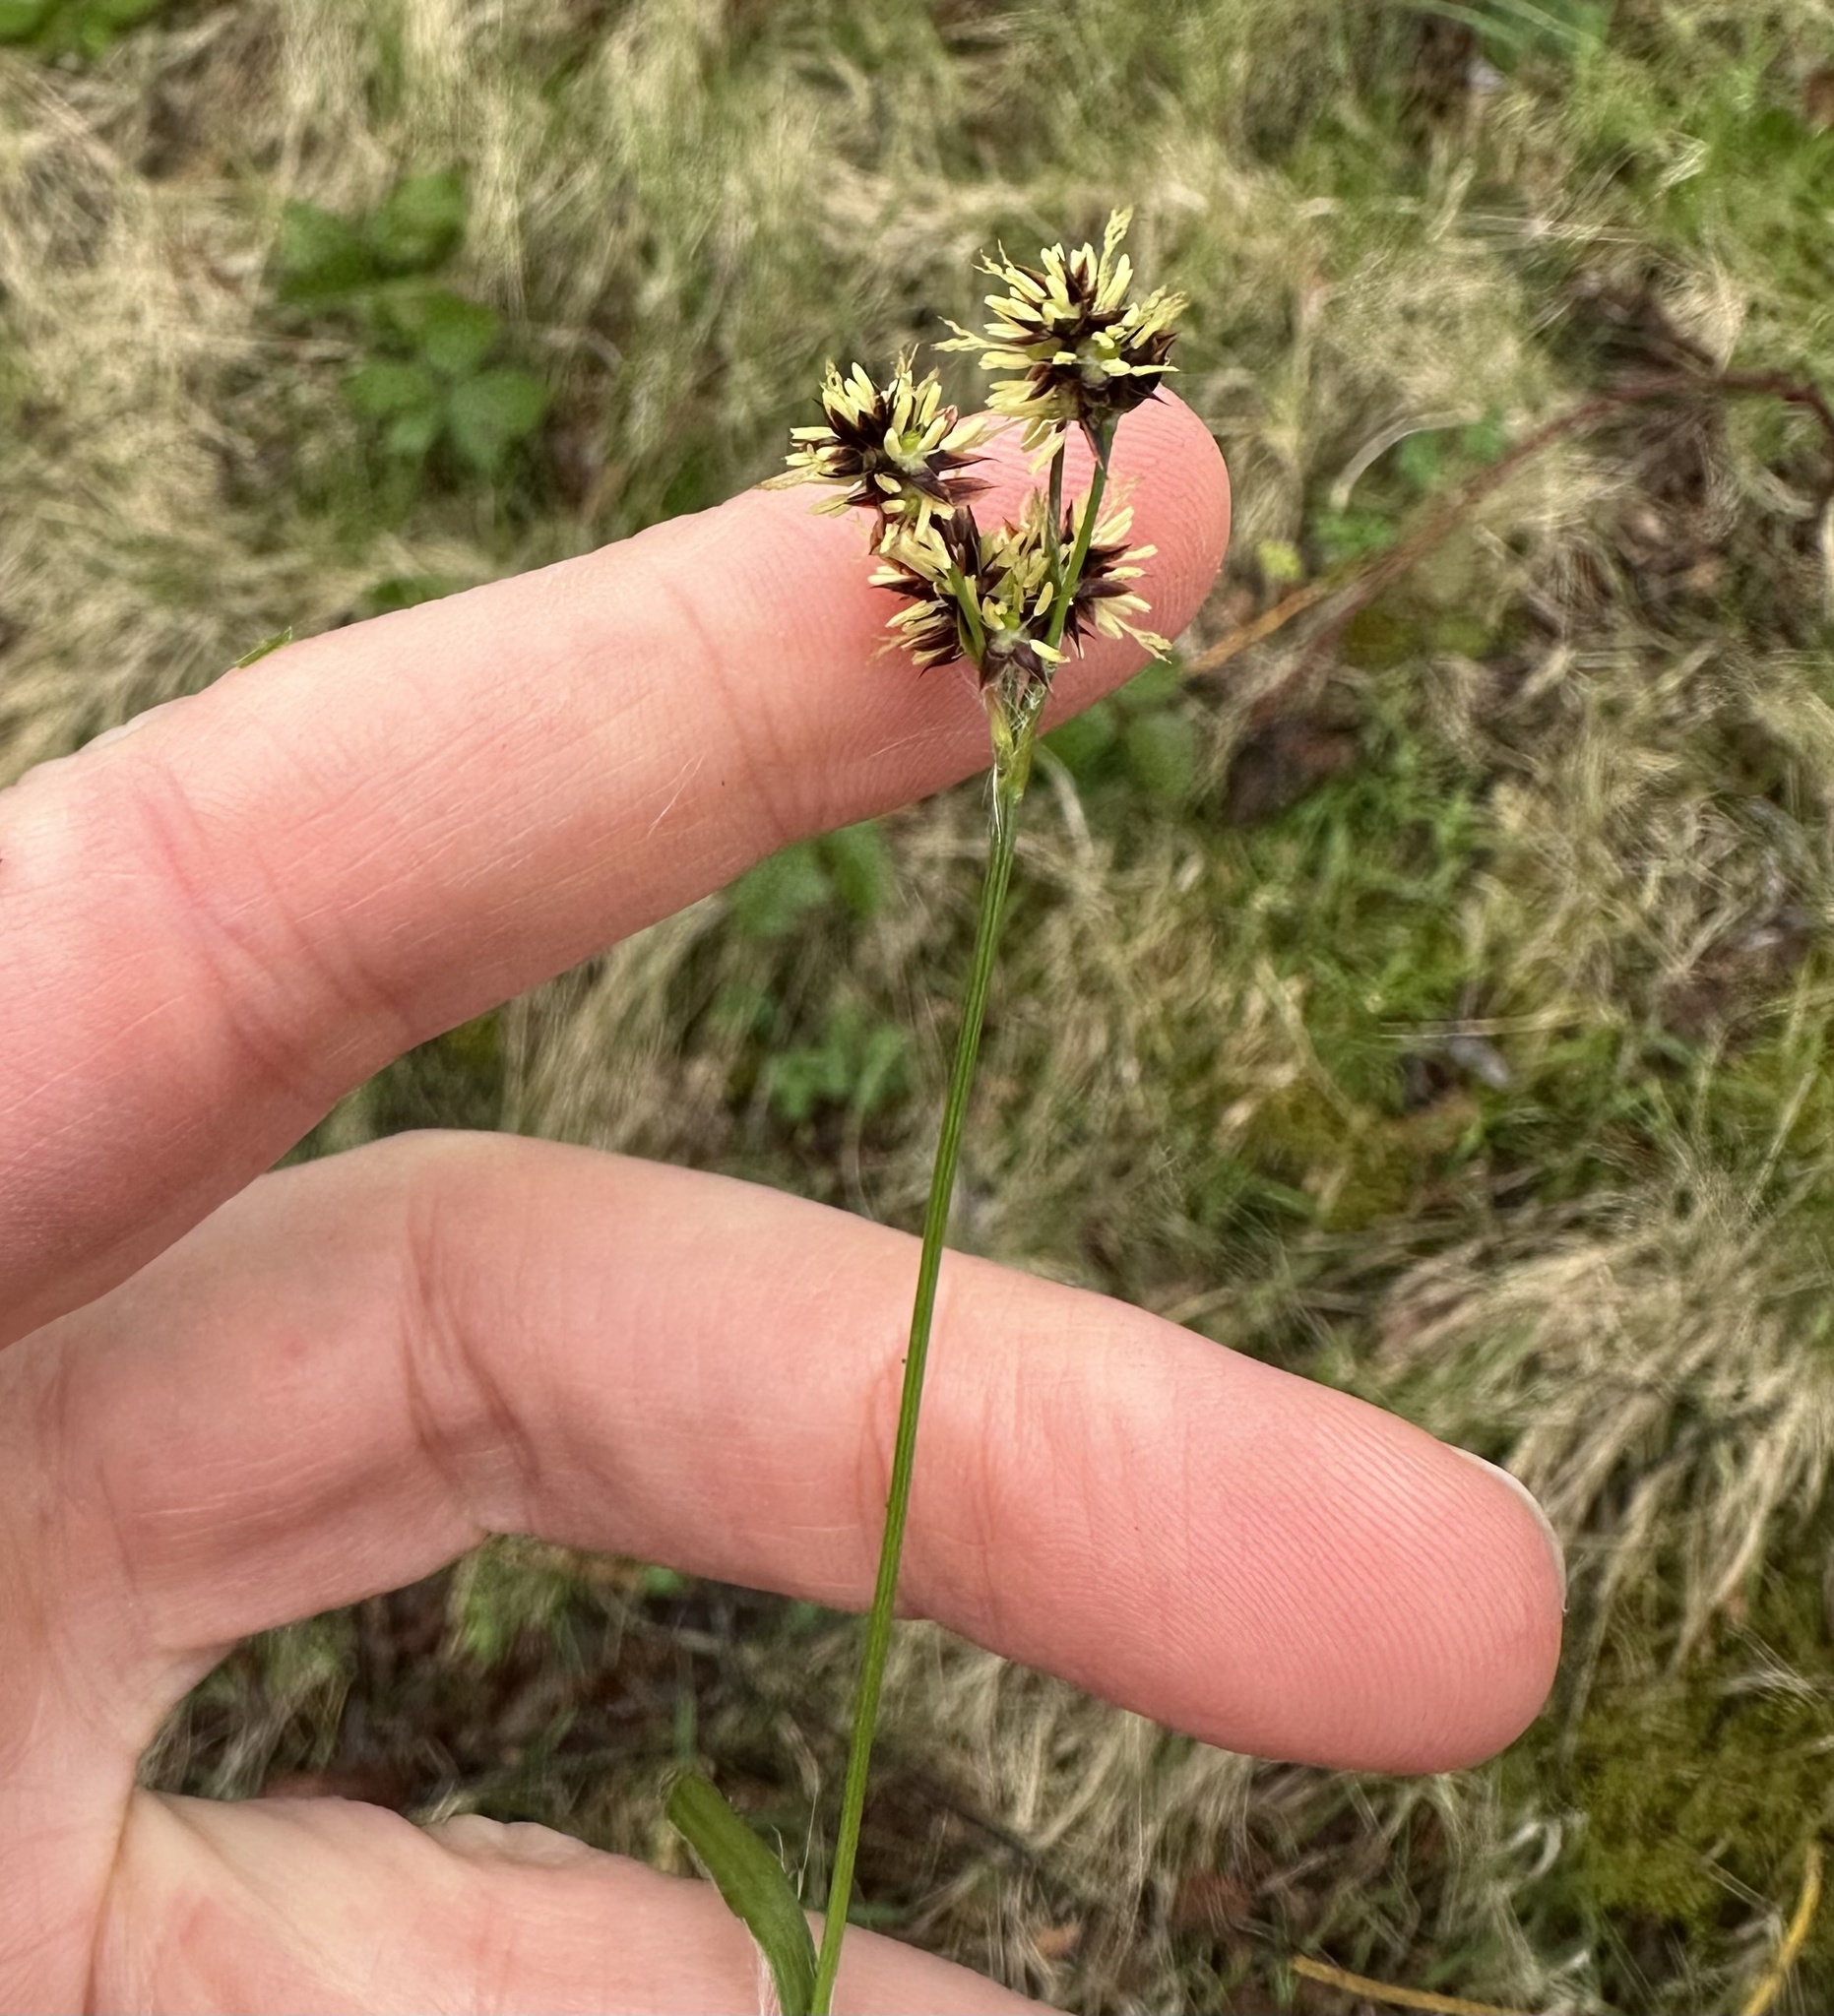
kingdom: Plantae
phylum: Tracheophyta
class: Liliopsida
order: Poales
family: Juncaceae
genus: Luzula
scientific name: Luzula campestris
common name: Field wood-rush
